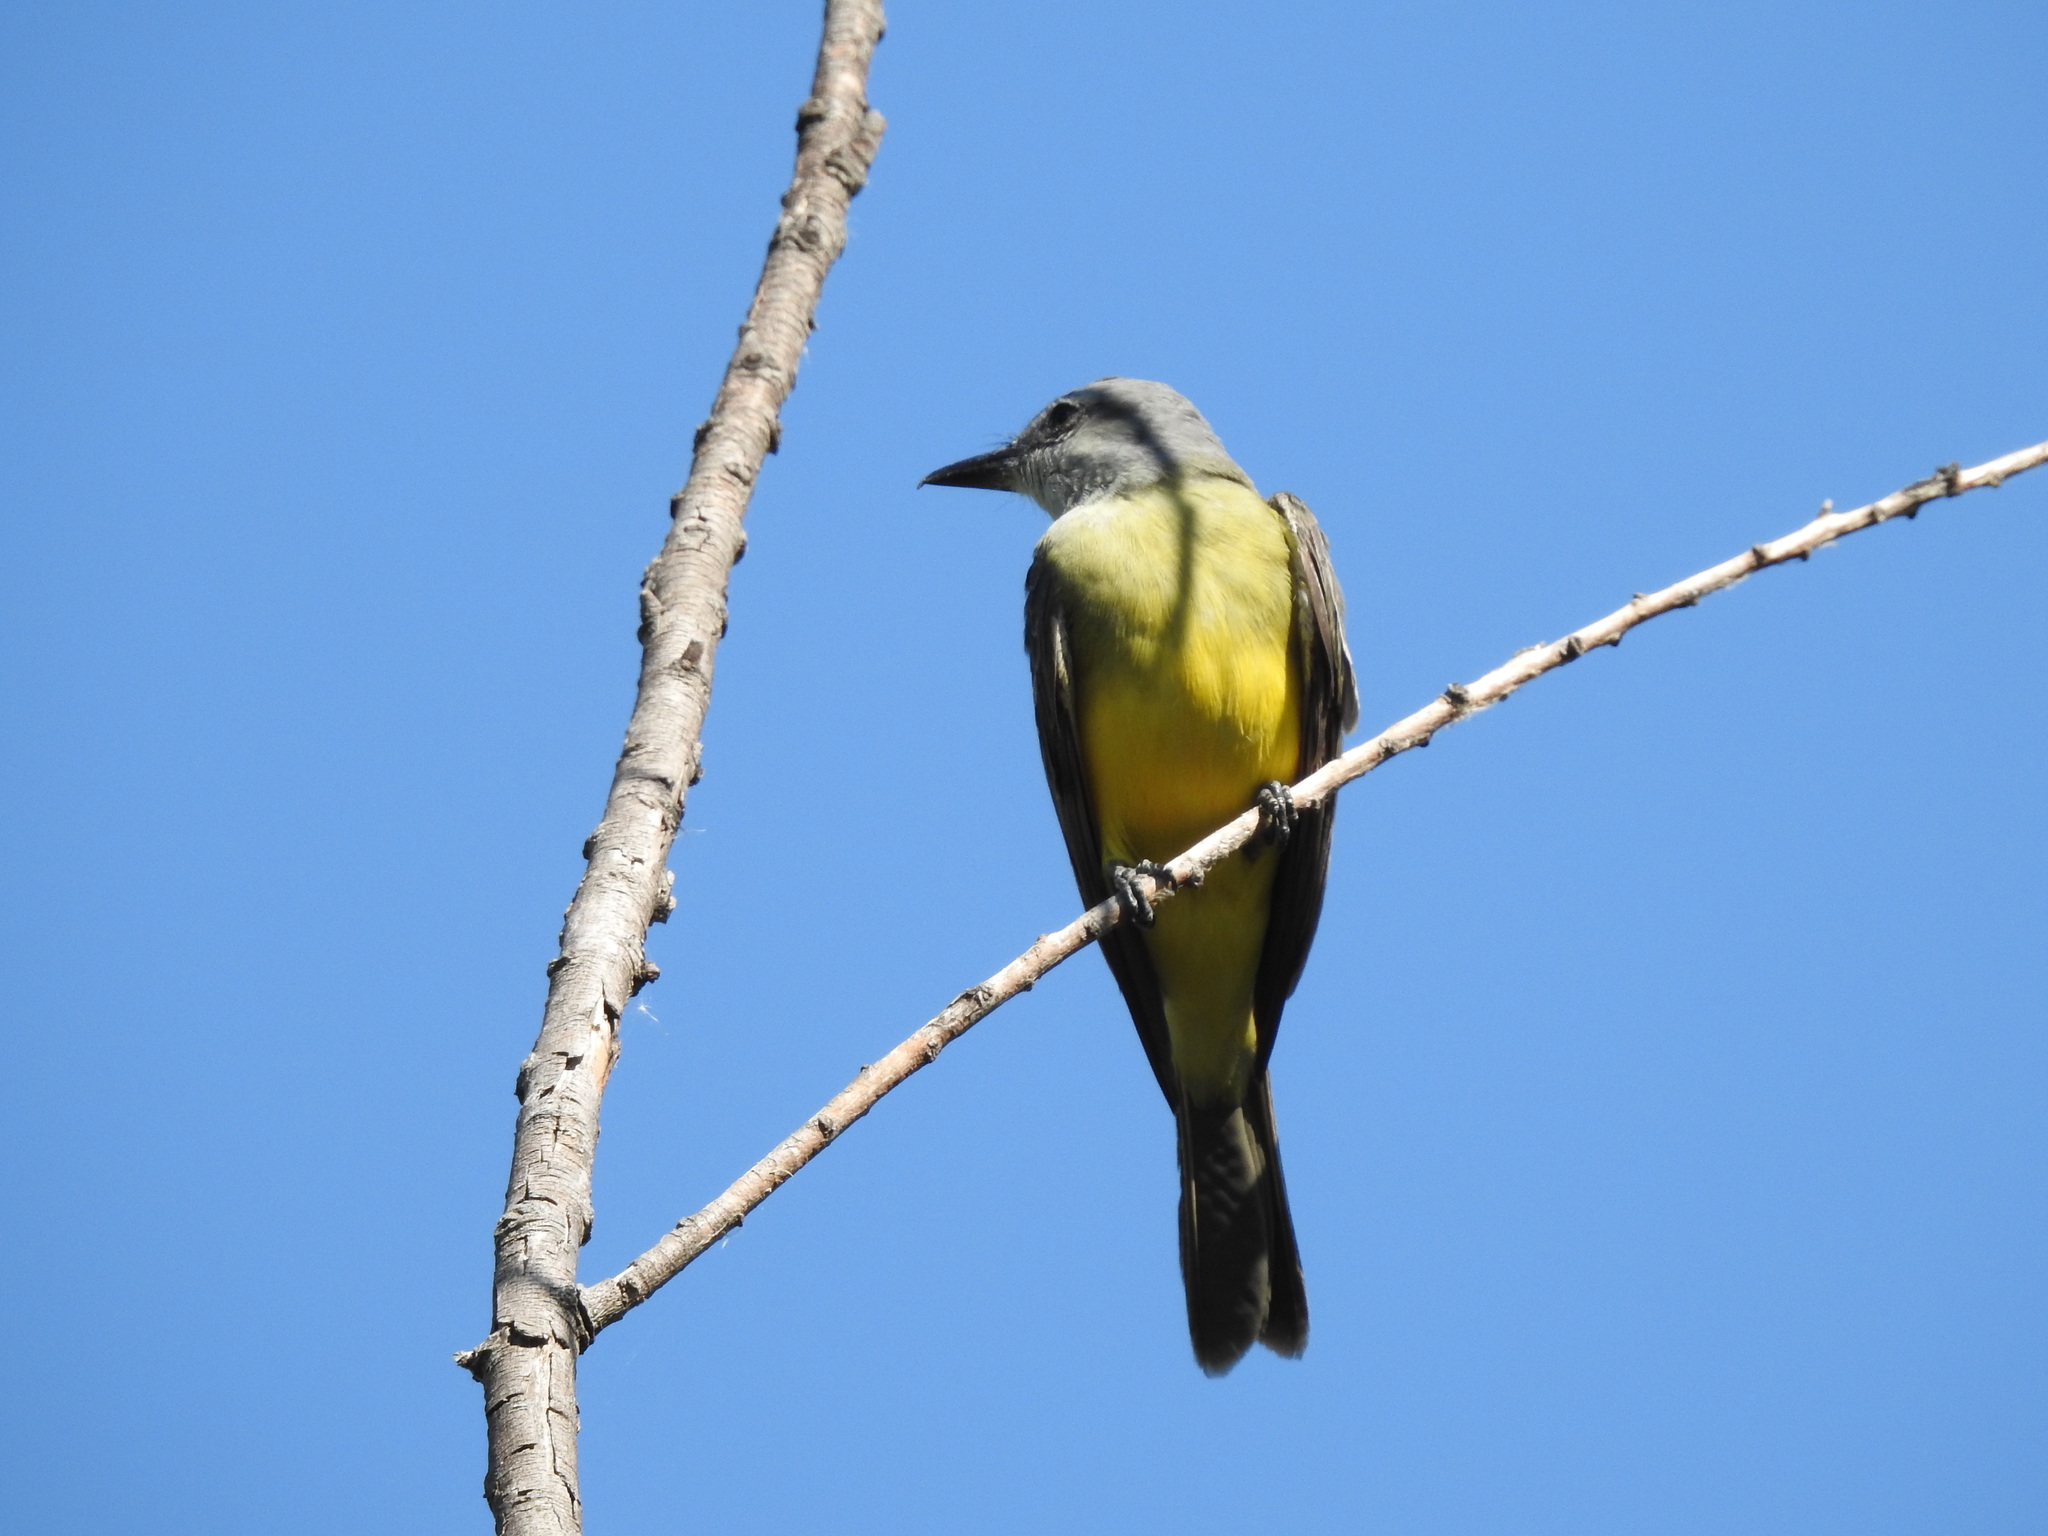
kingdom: Animalia
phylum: Chordata
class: Aves
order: Passeriformes
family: Tyrannidae
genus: Tyrannus
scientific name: Tyrannus melancholicus
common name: Tropical kingbird
